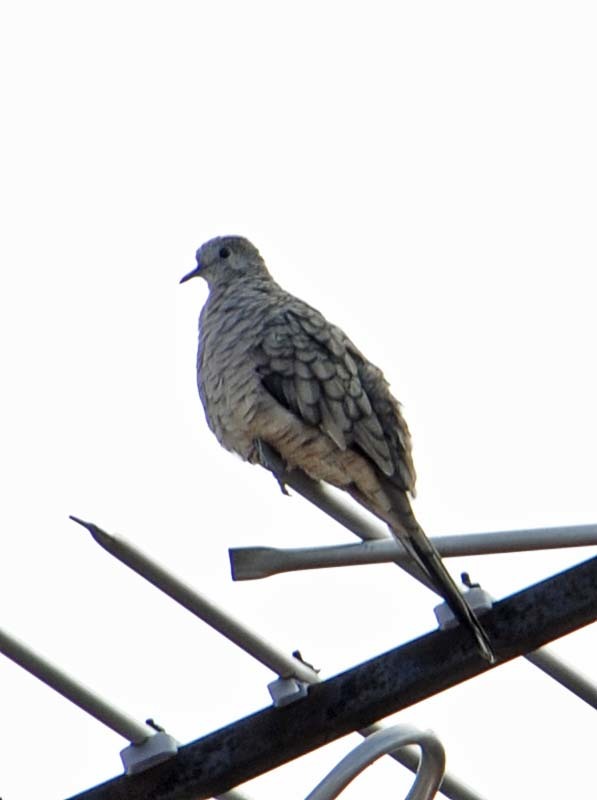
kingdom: Animalia
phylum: Chordata
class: Aves
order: Columbiformes
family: Columbidae
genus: Columbina
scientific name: Columbina inca
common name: Inca dove
